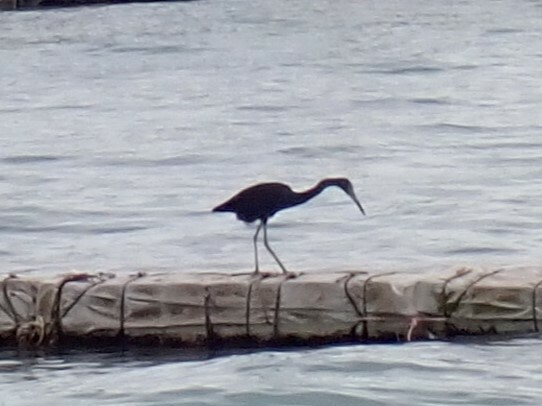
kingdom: Animalia
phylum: Chordata
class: Aves
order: Pelecaniformes
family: Ardeidae
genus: Egretta
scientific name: Egretta caerulea
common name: Little blue heron
